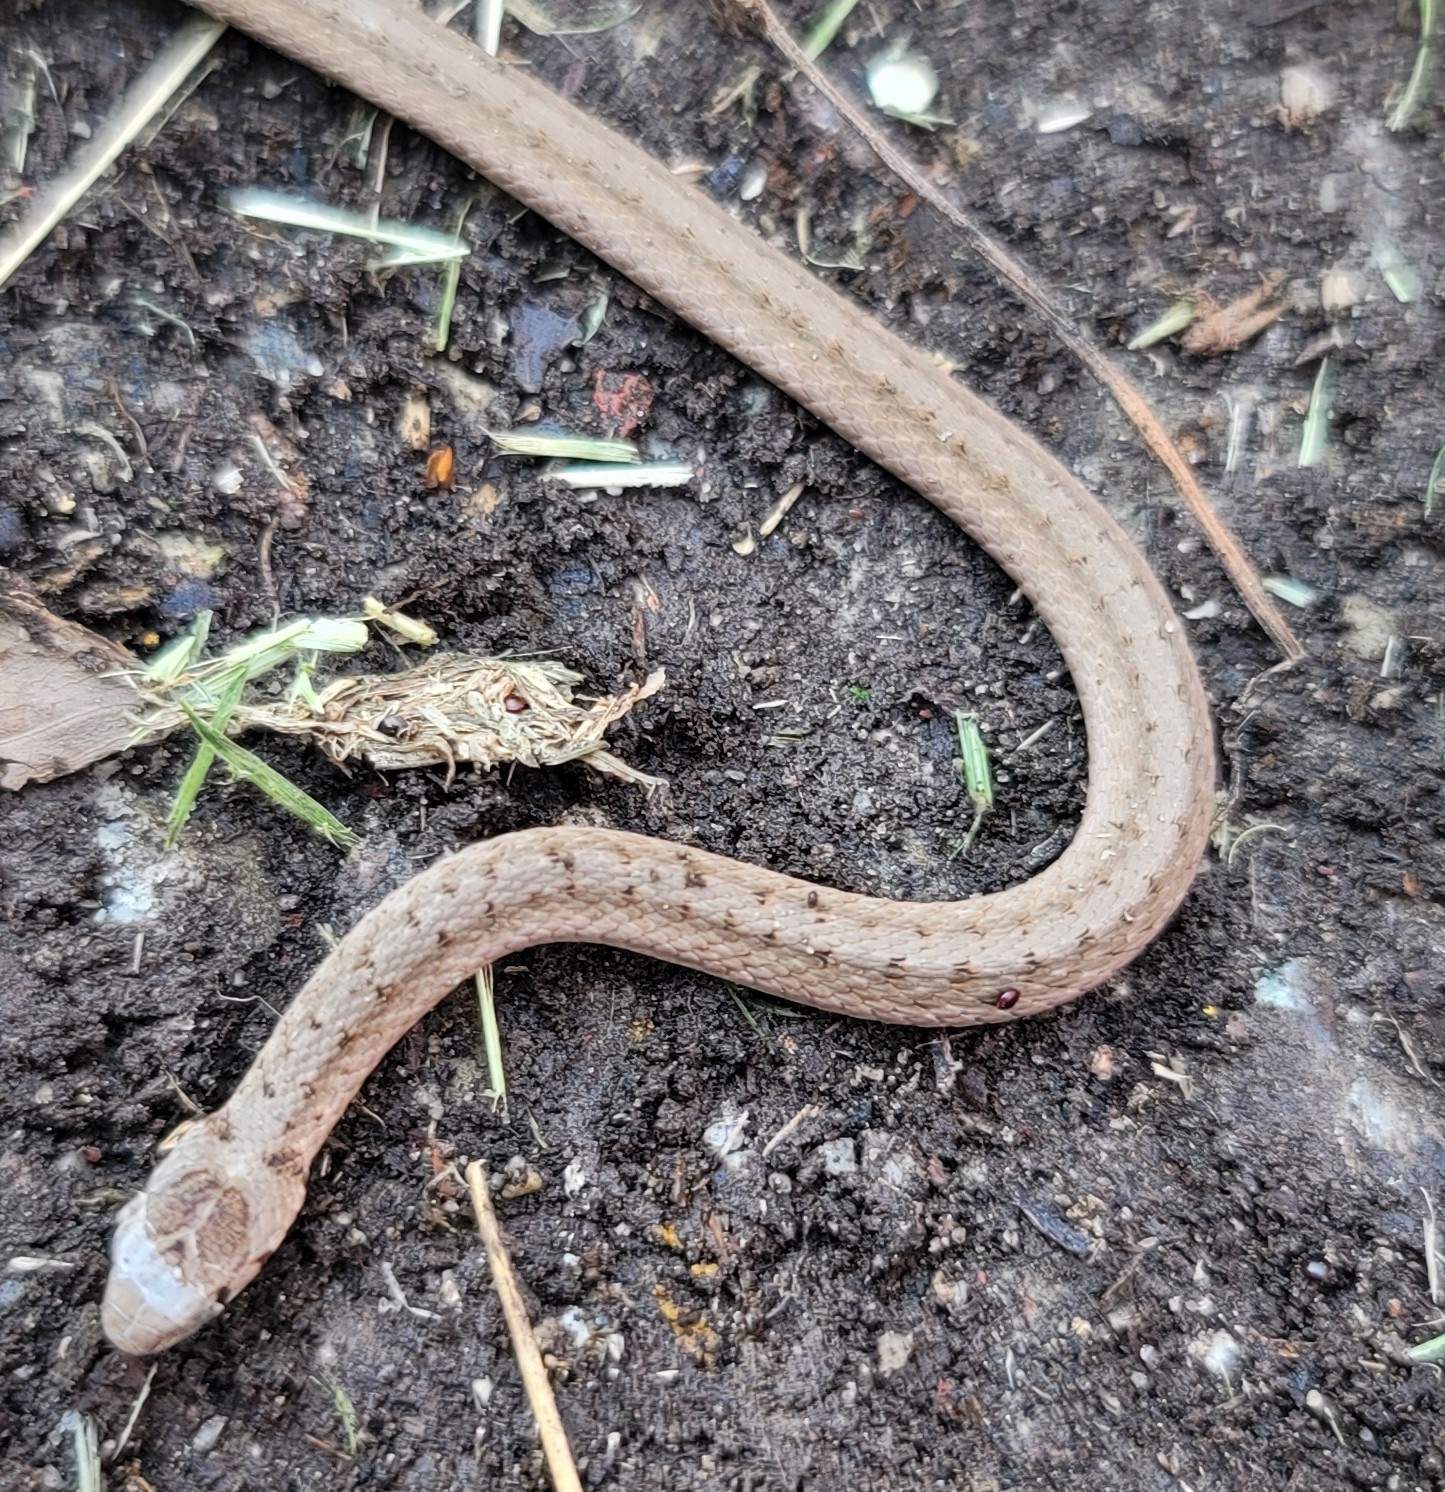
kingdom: Animalia
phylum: Chordata
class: Squamata
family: Colubridae
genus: Storeria
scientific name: Storeria dekayi
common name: (dekay’s) brown snake
